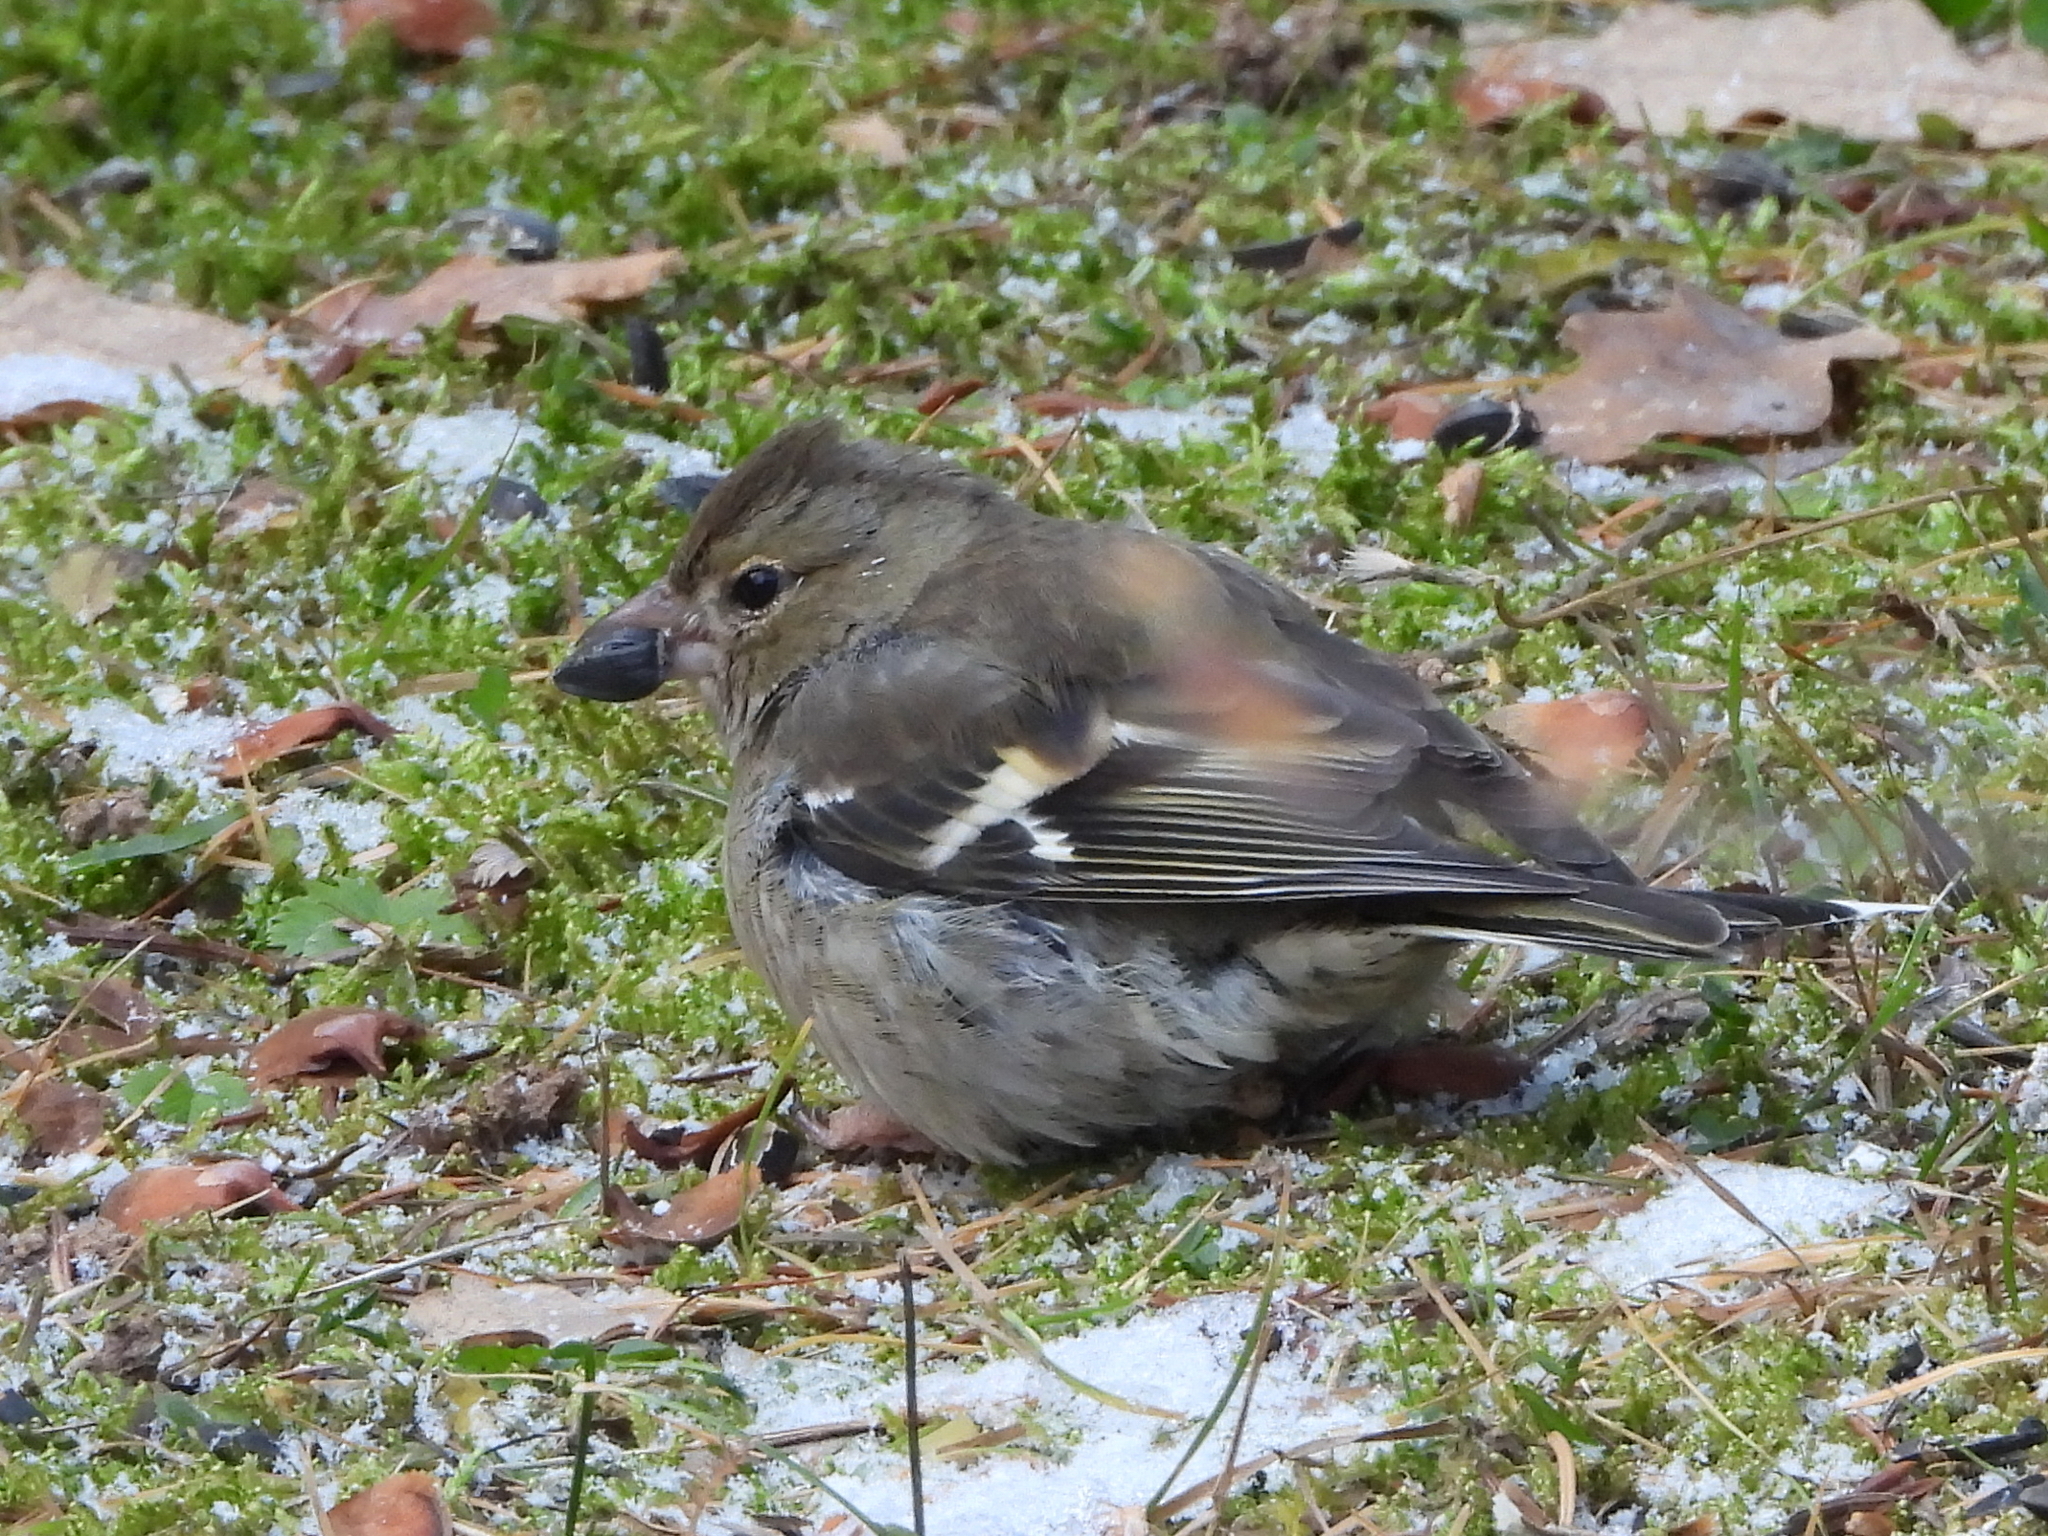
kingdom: Animalia
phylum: Chordata
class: Aves
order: Passeriformes
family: Fringillidae
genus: Fringilla
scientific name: Fringilla coelebs
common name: Common chaffinch
